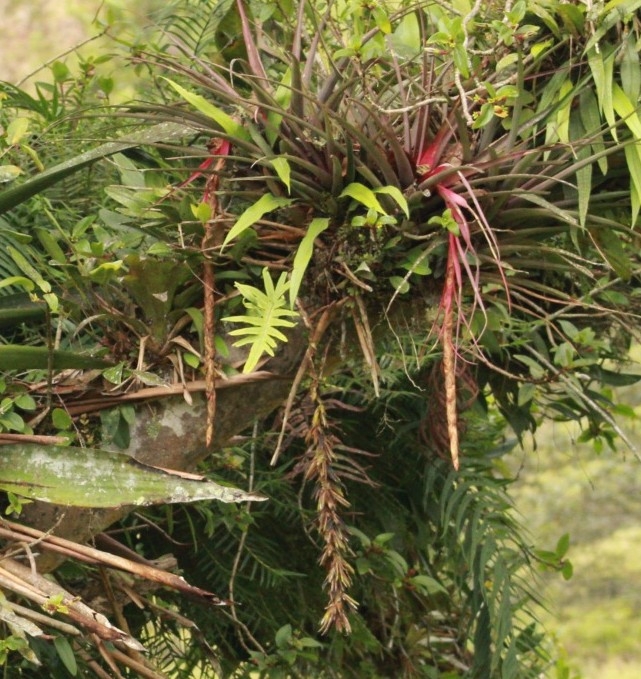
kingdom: Plantae
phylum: Tracheophyta
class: Liliopsida
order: Poales
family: Bromeliaceae
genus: Vriesea
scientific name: Vriesea tequendamae
